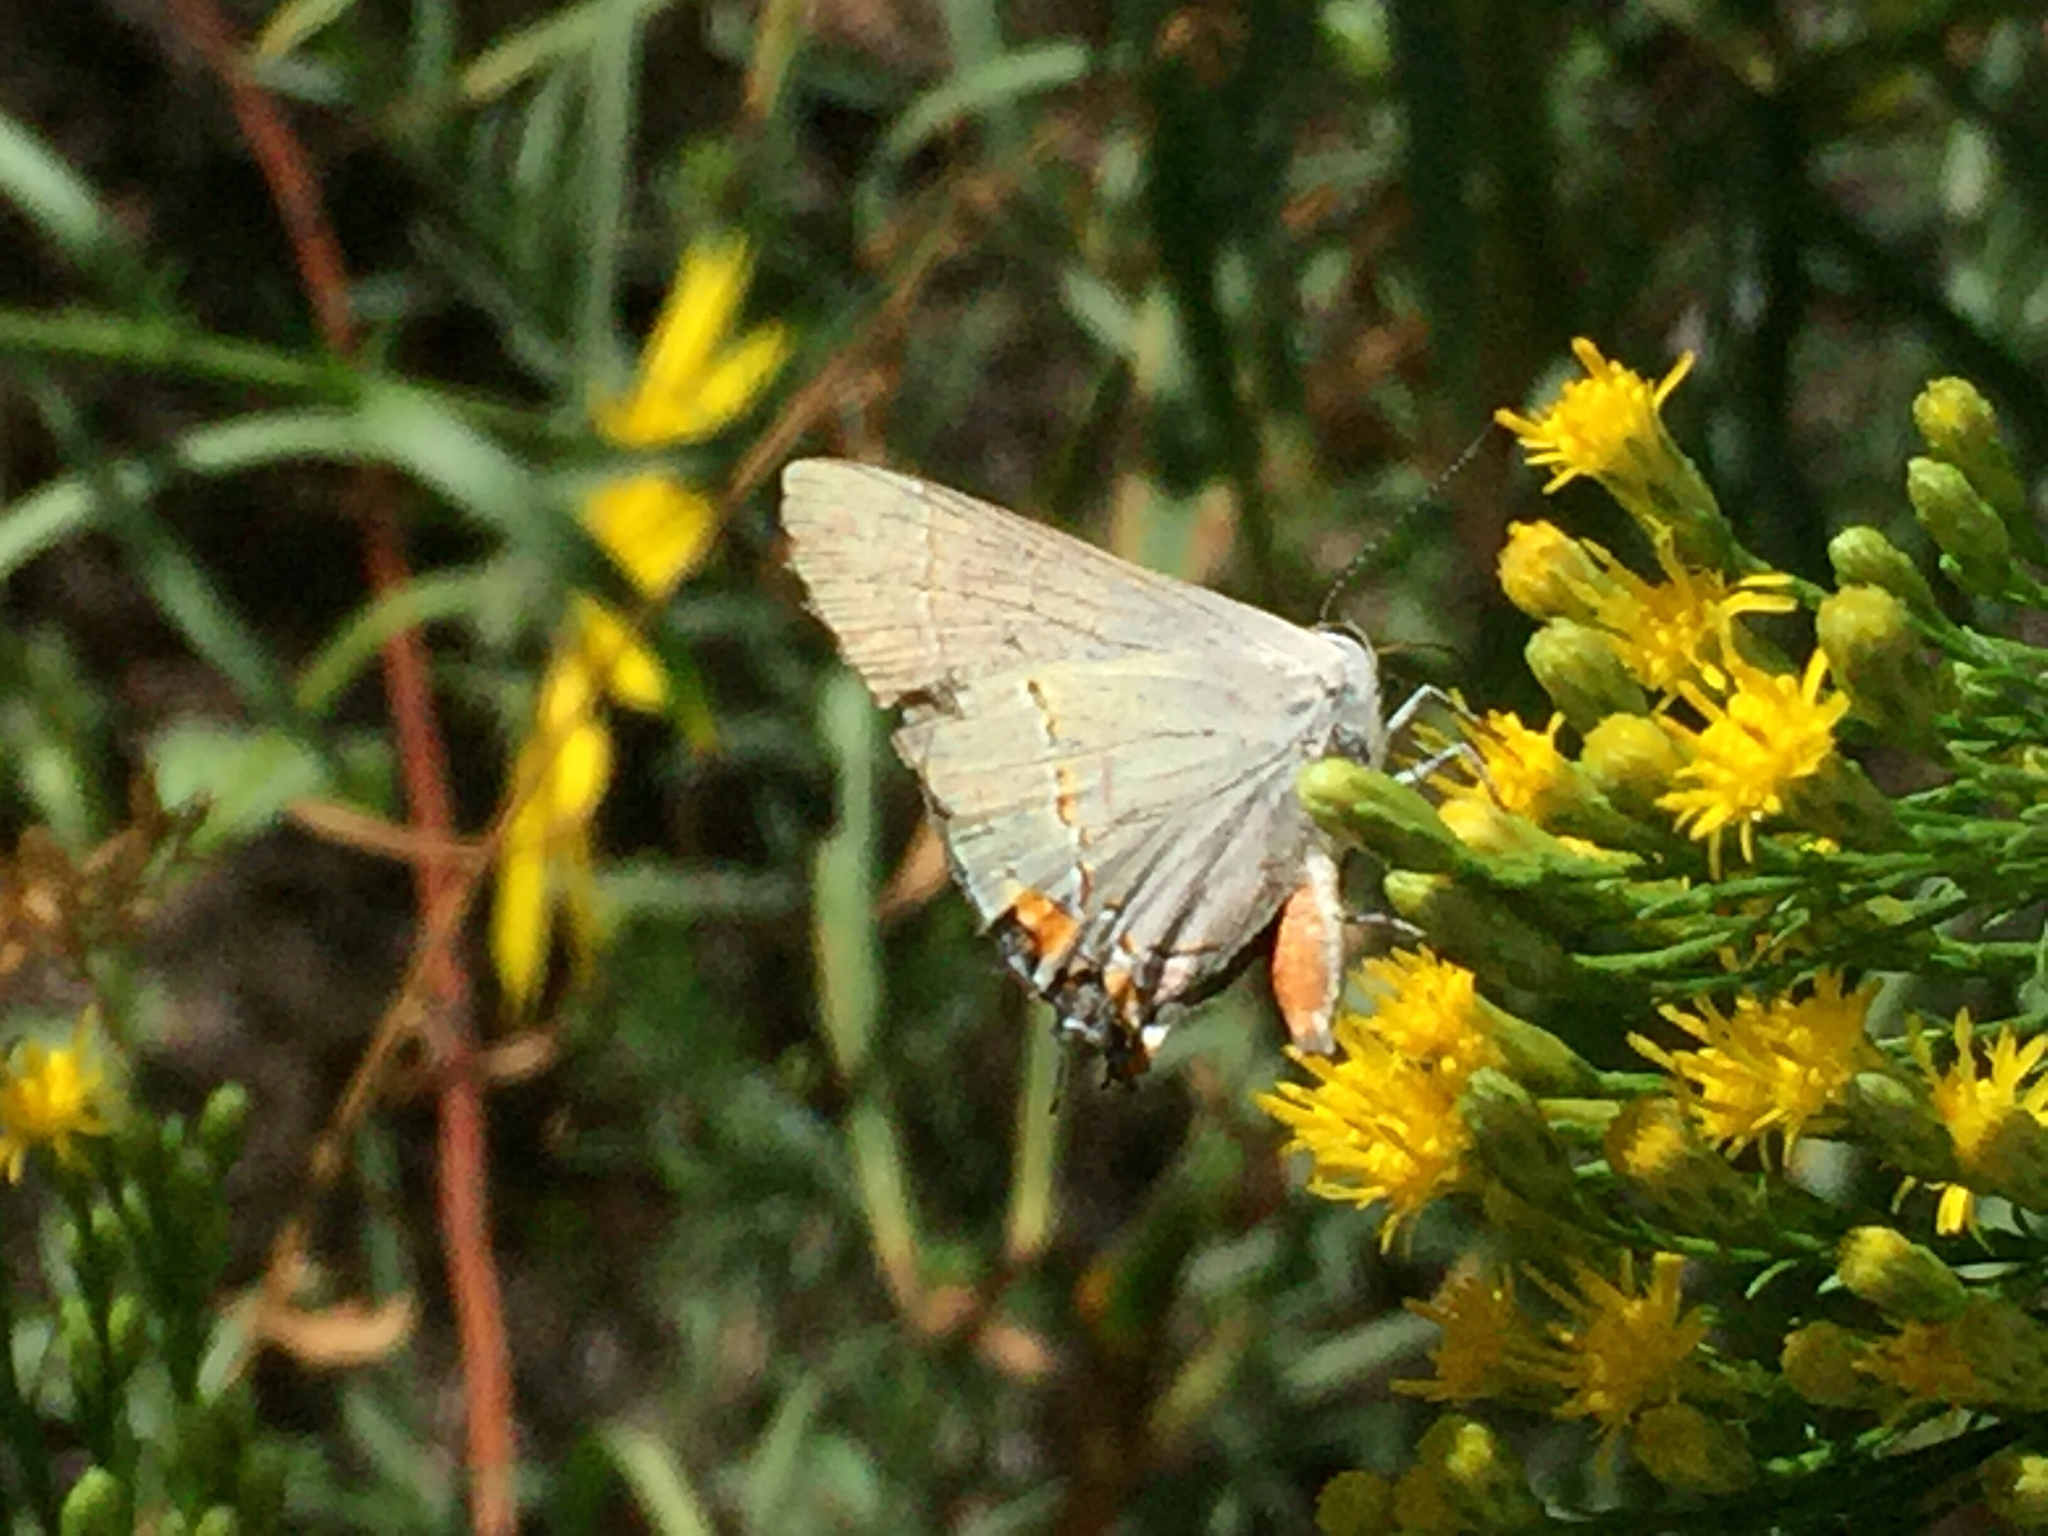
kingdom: Animalia
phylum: Arthropoda
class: Insecta
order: Lepidoptera
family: Lycaenidae
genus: Strymon
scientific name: Strymon melinus
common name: Gray hairstreak
